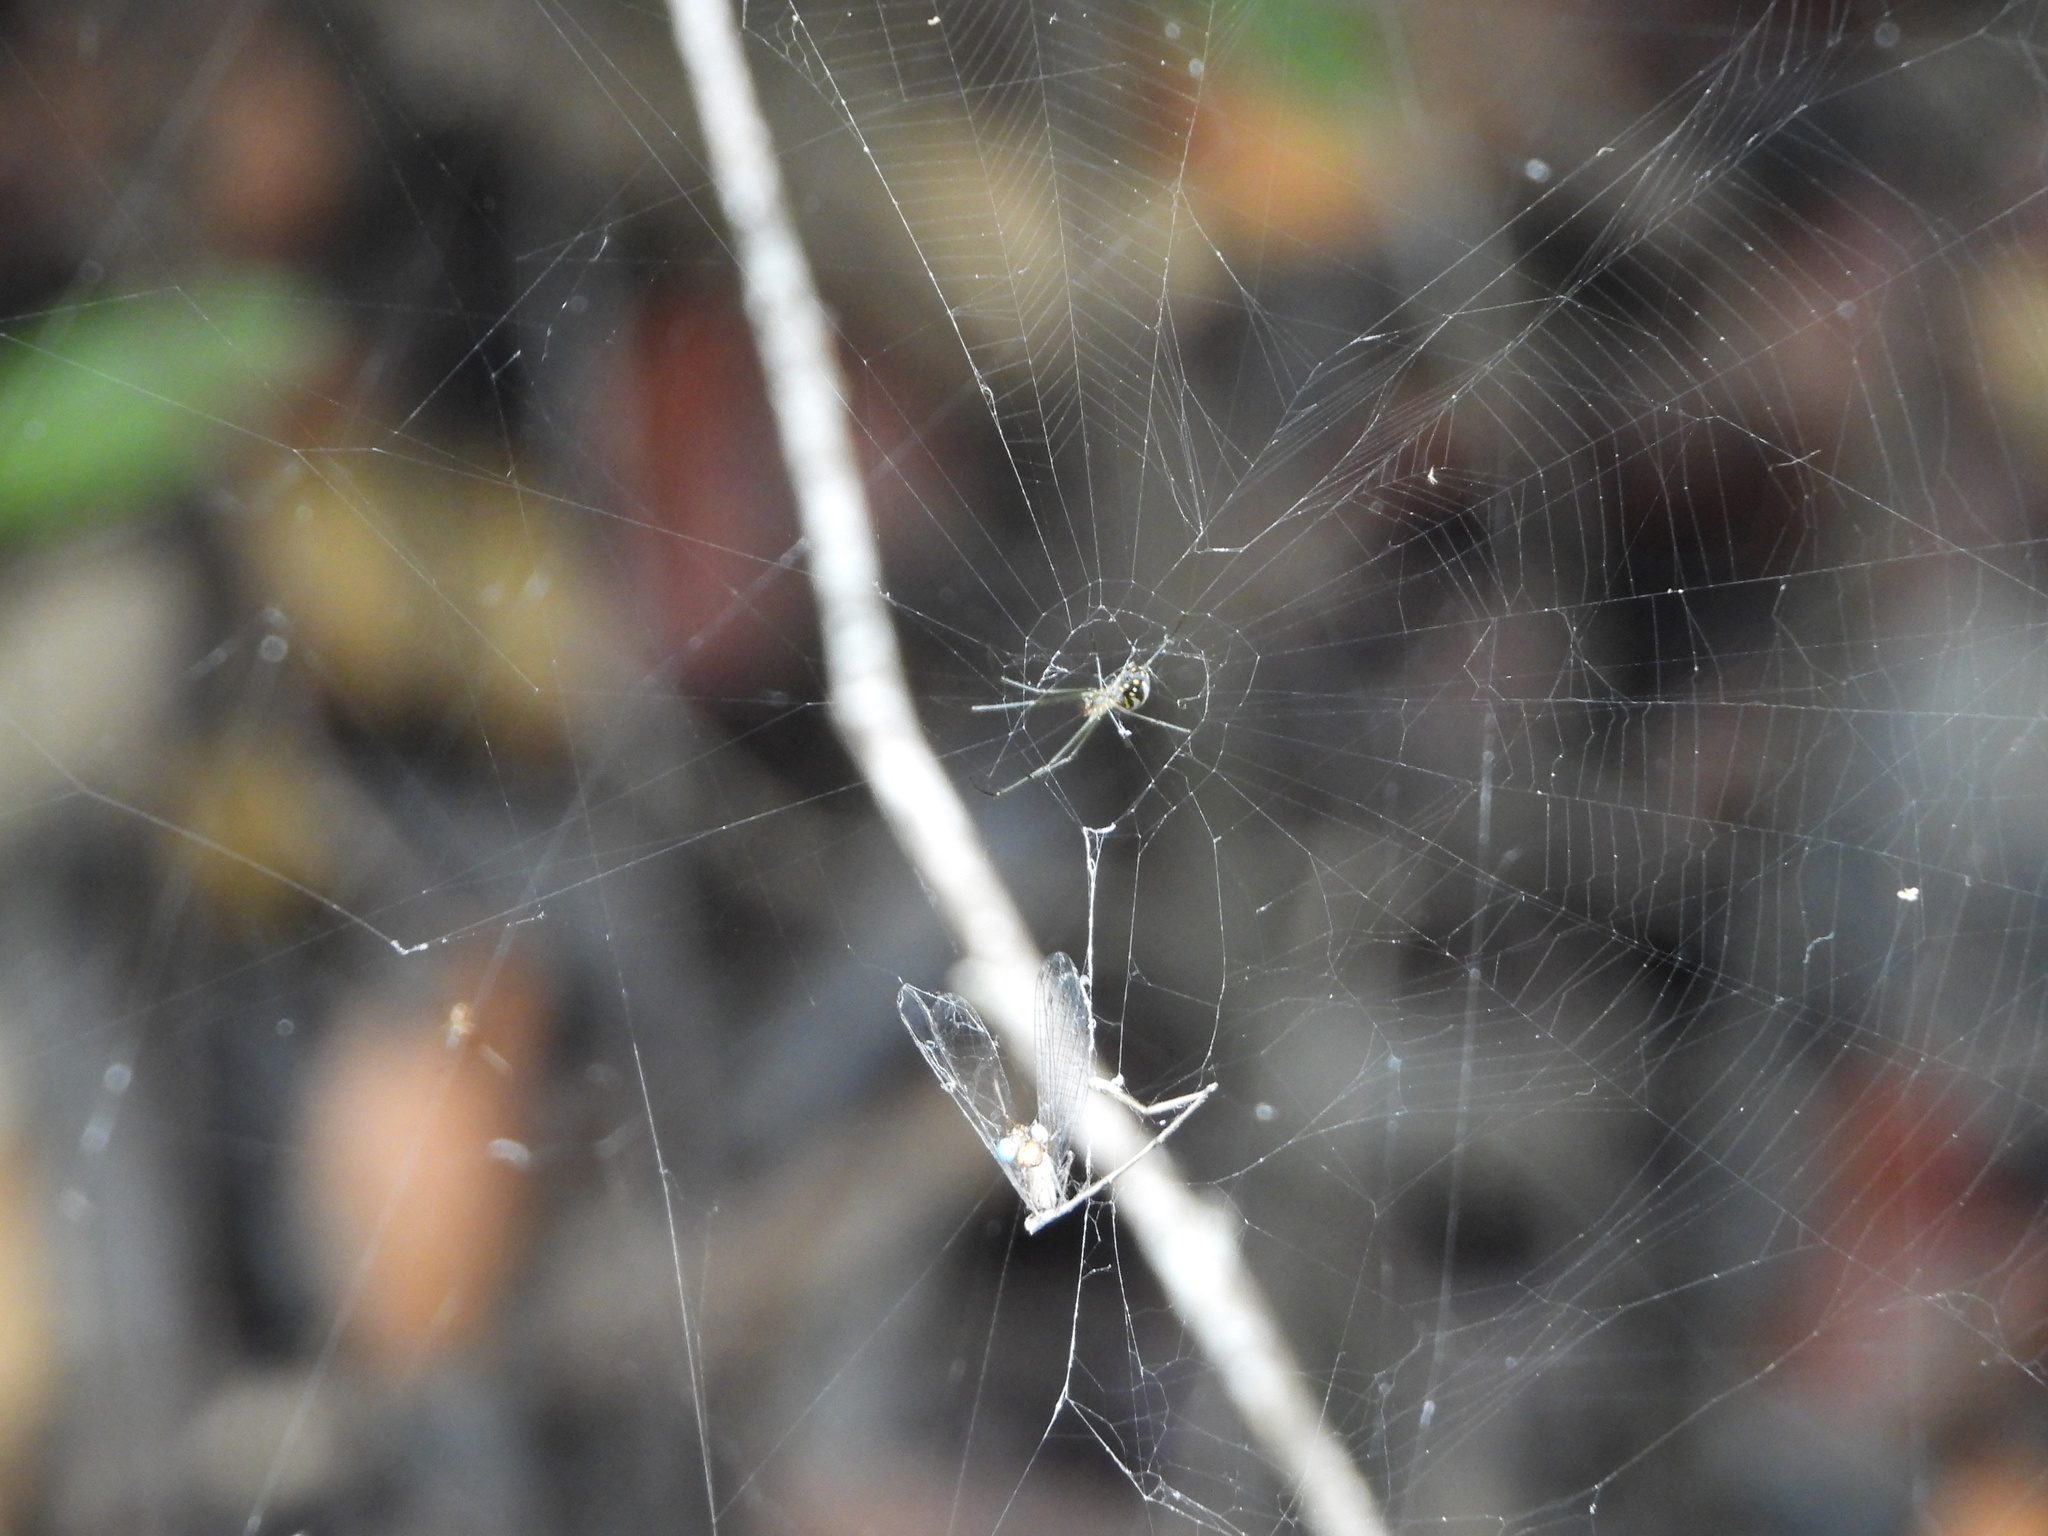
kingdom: Animalia
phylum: Arthropoda
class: Arachnida
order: Araneae
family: Tetragnathidae
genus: Leucauge
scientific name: Leucauge argyra
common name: Longjawed orb weavers
